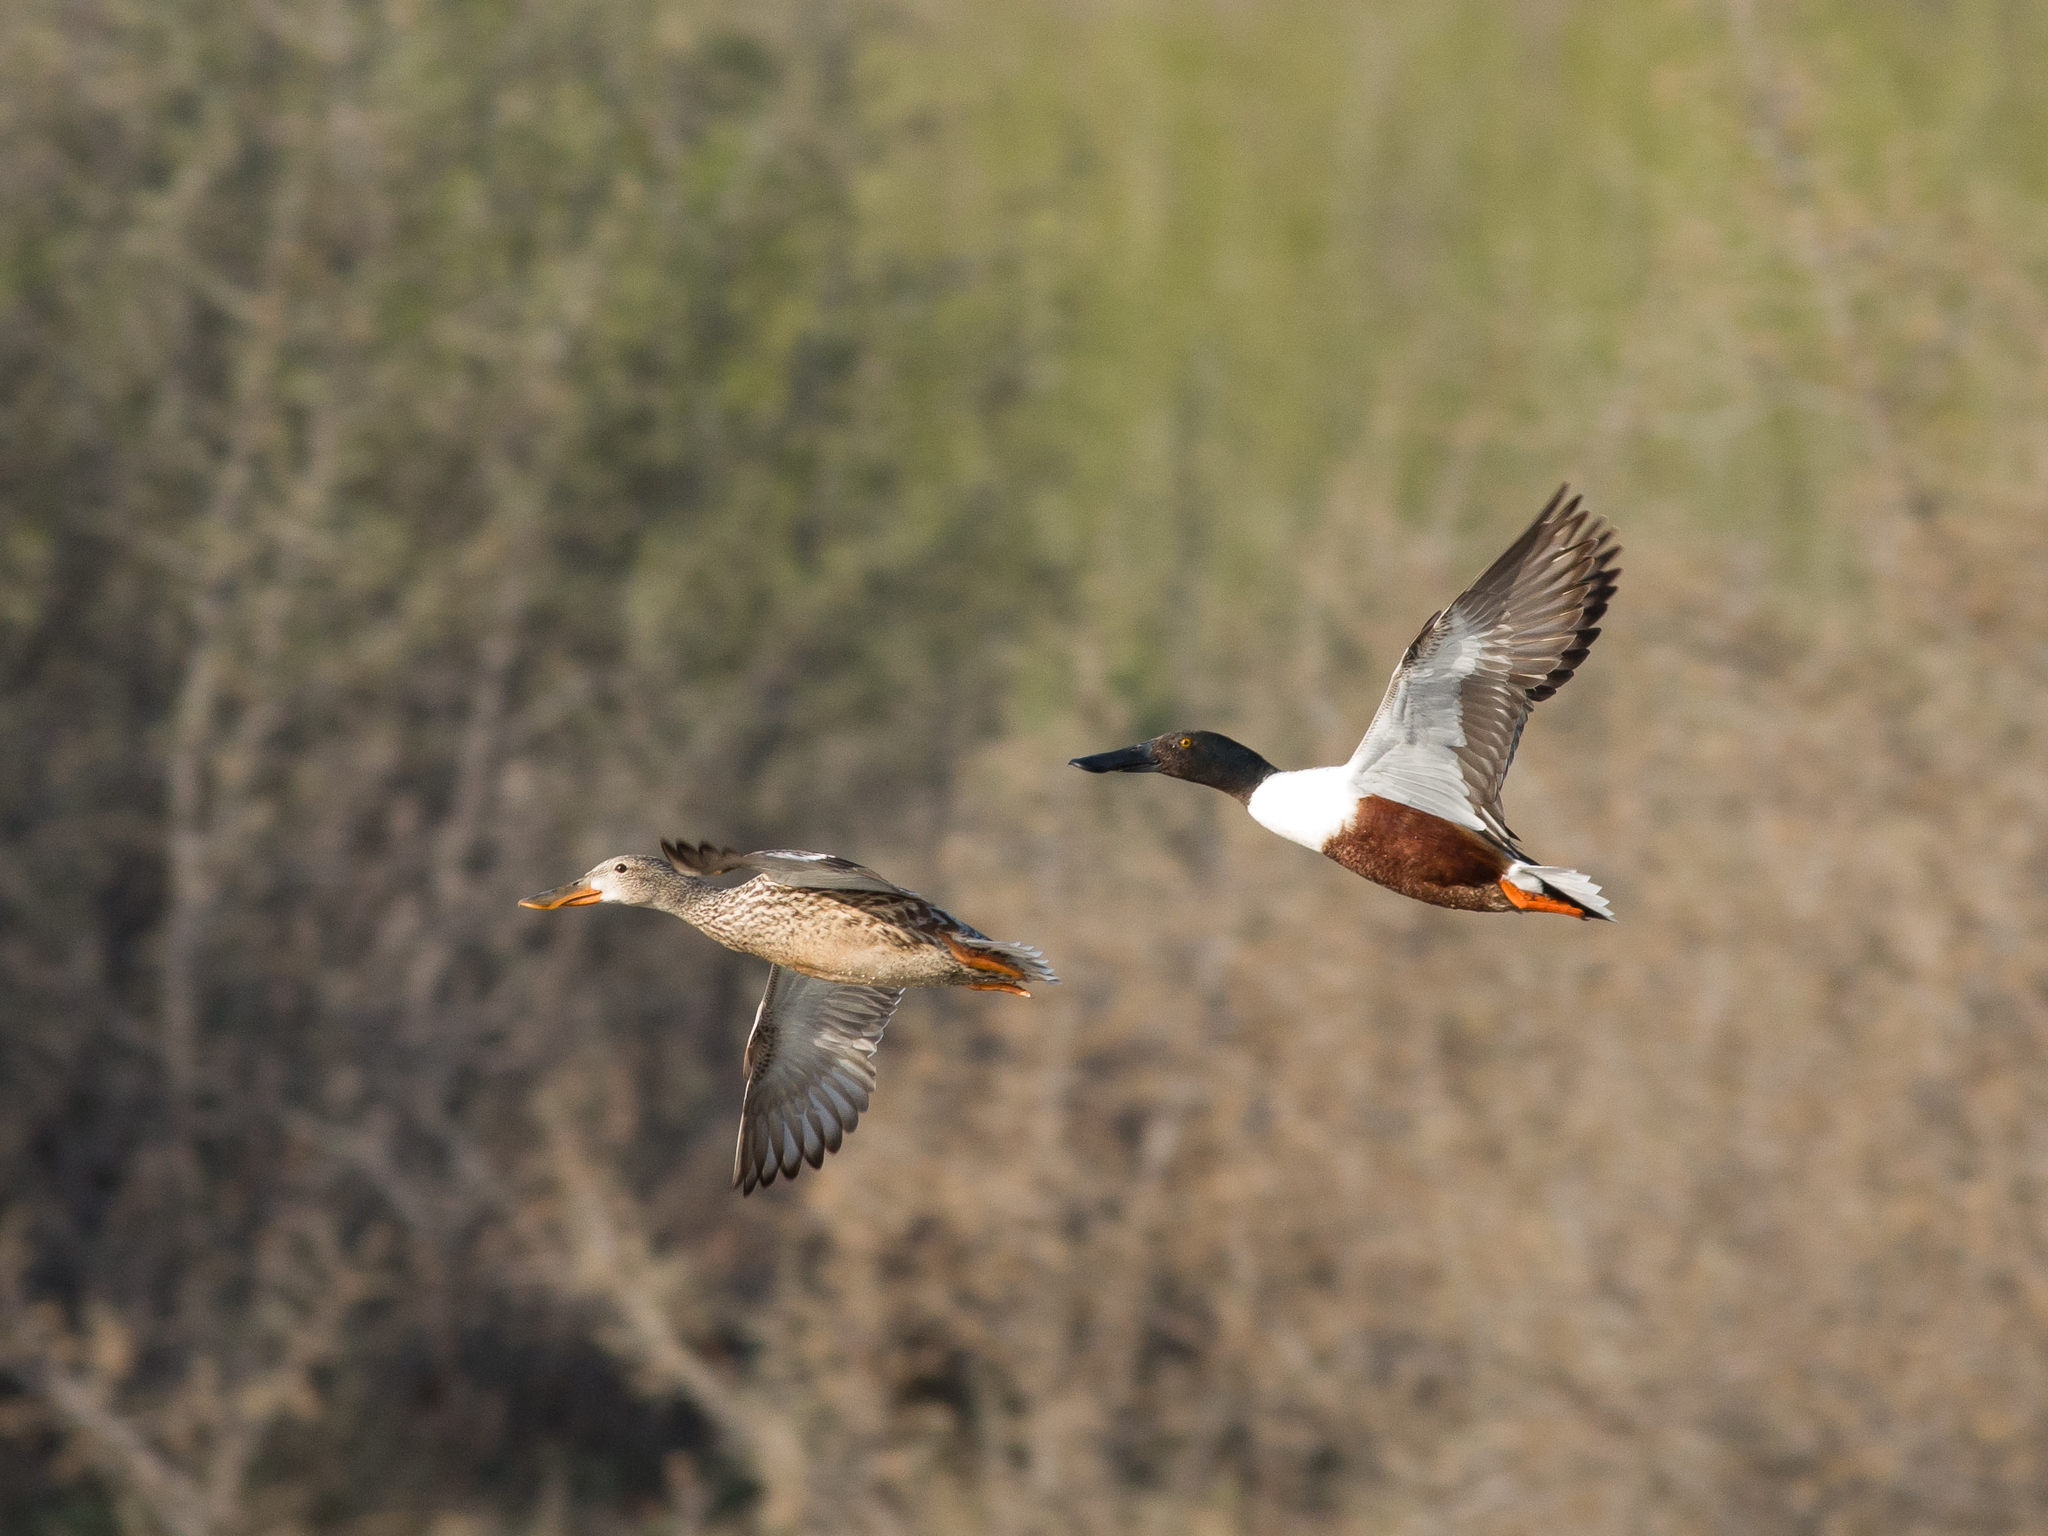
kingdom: Animalia
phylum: Chordata
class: Aves
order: Anseriformes
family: Anatidae
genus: Spatula
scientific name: Spatula clypeata
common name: Northern shoveler
